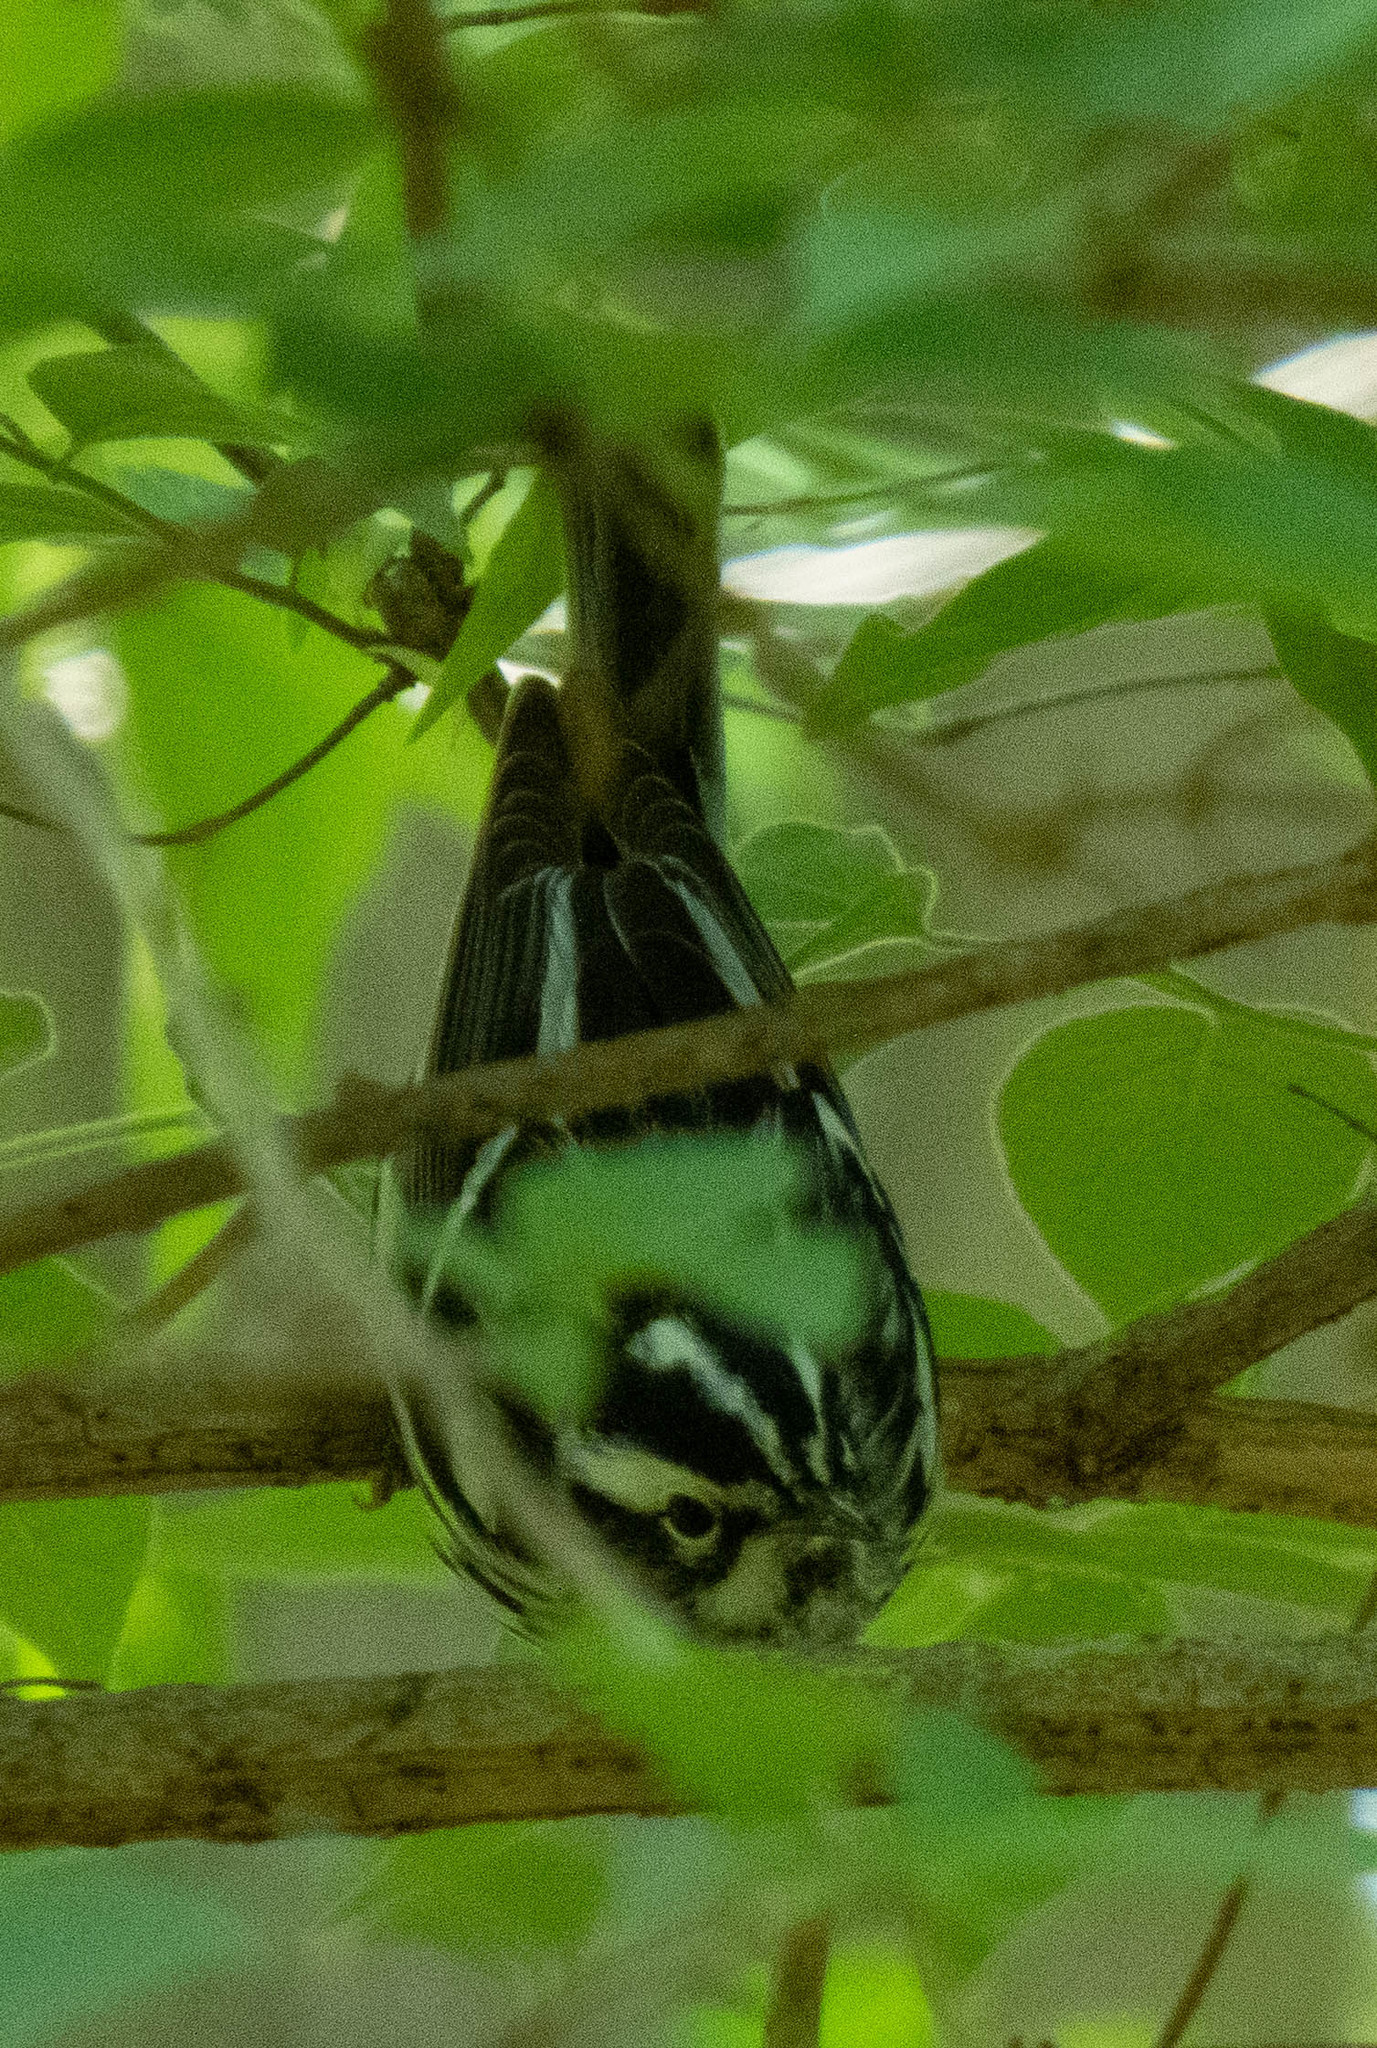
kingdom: Animalia
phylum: Chordata
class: Aves
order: Passeriformes
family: Parulidae
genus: Mniotilta
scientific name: Mniotilta varia
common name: Black-and-white warbler
